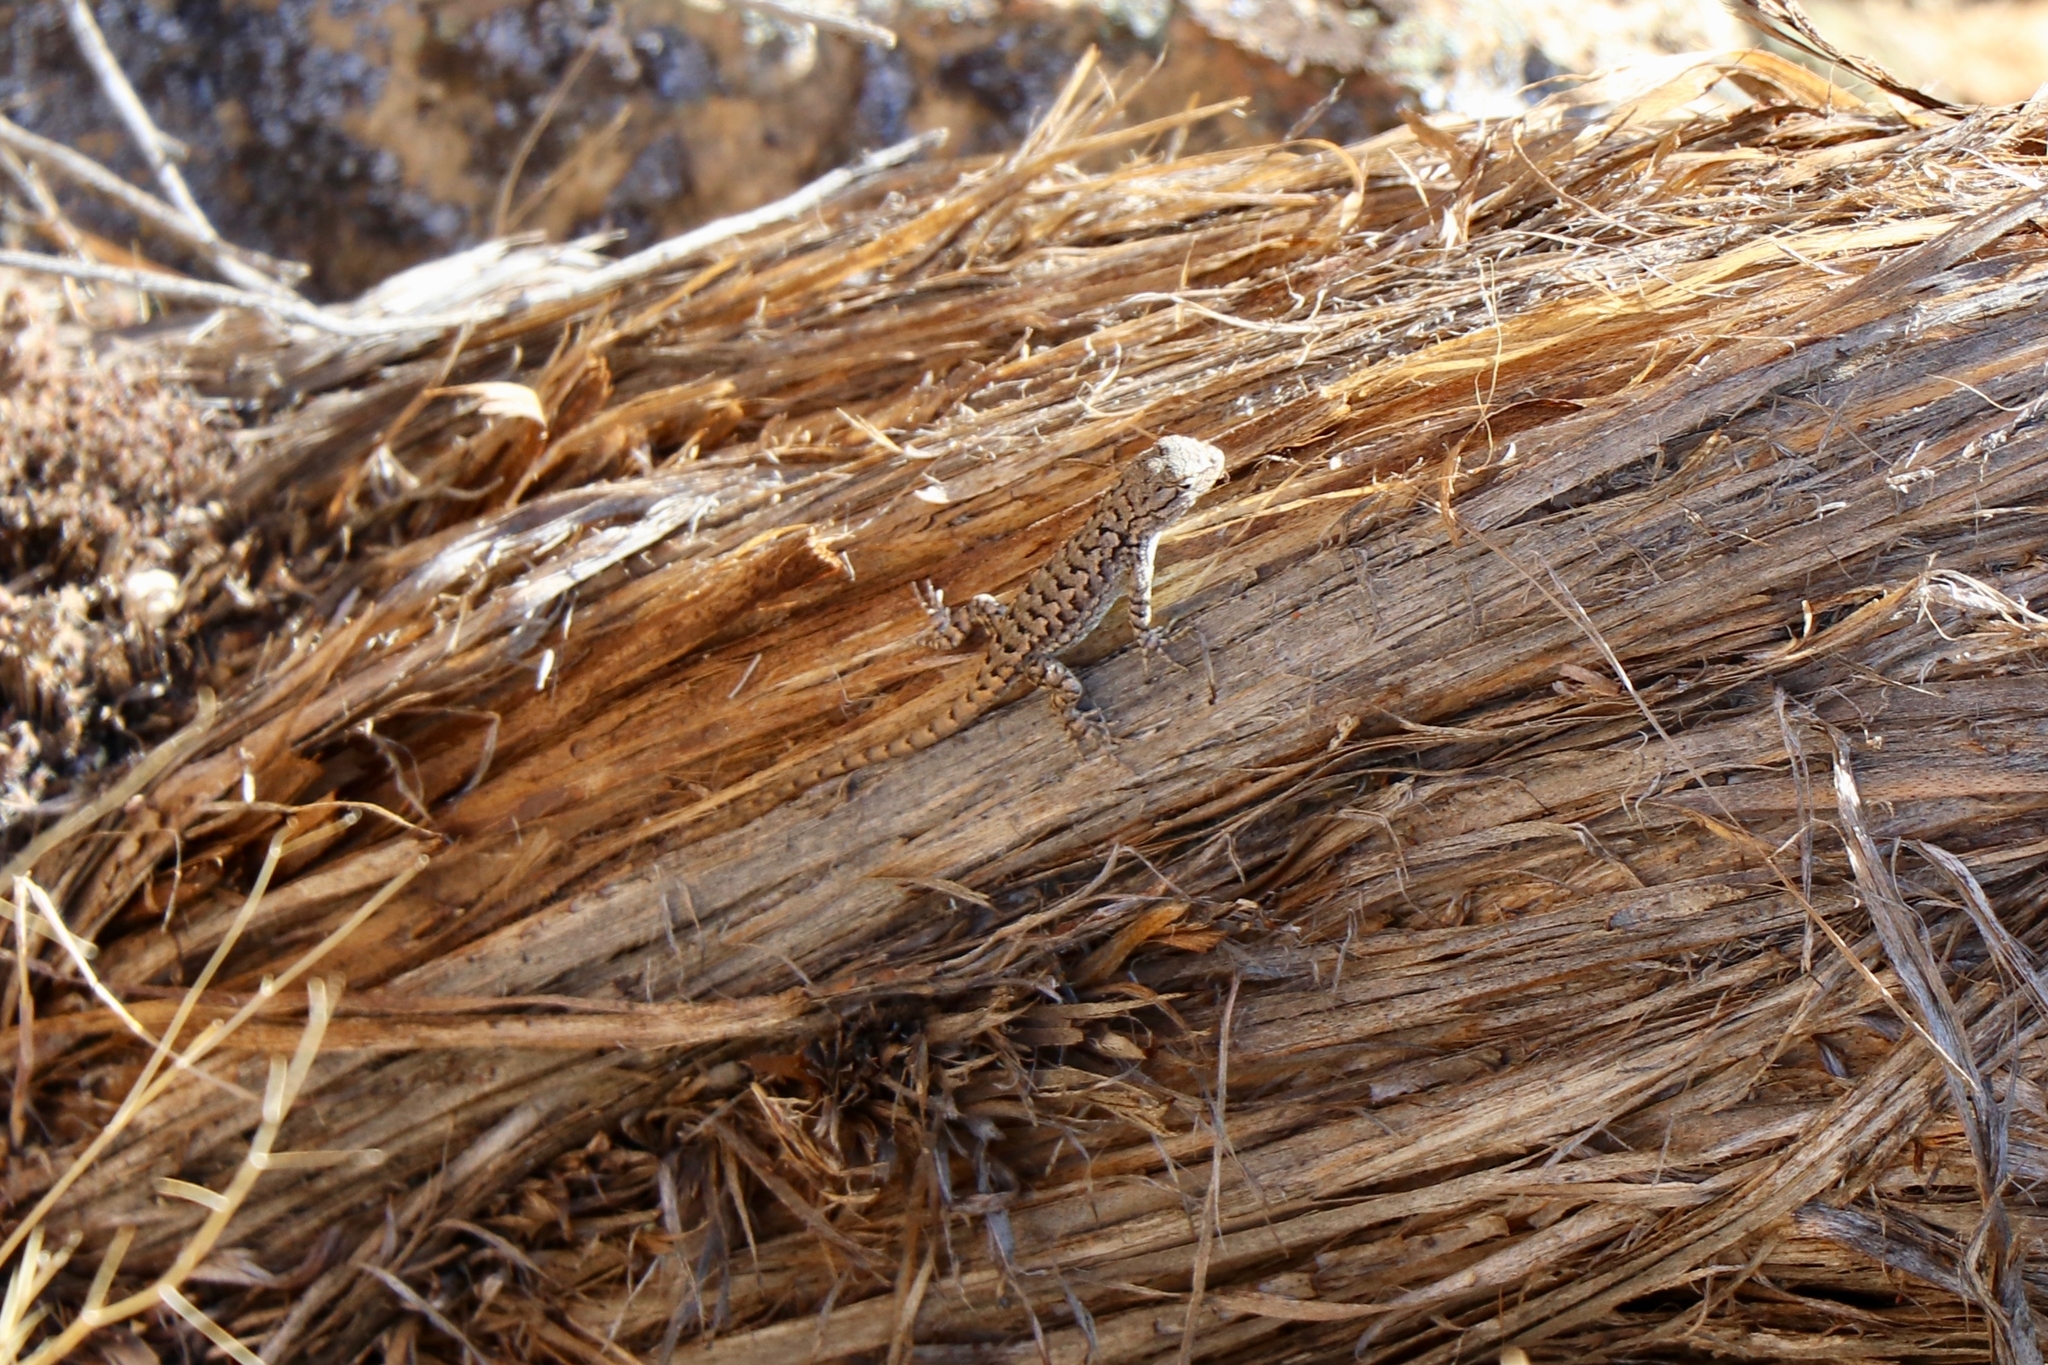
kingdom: Animalia
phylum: Chordata
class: Squamata
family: Phrynosomatidae
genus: Sceloporus
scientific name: Sceloporus occidentalis
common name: Western fence lizard
